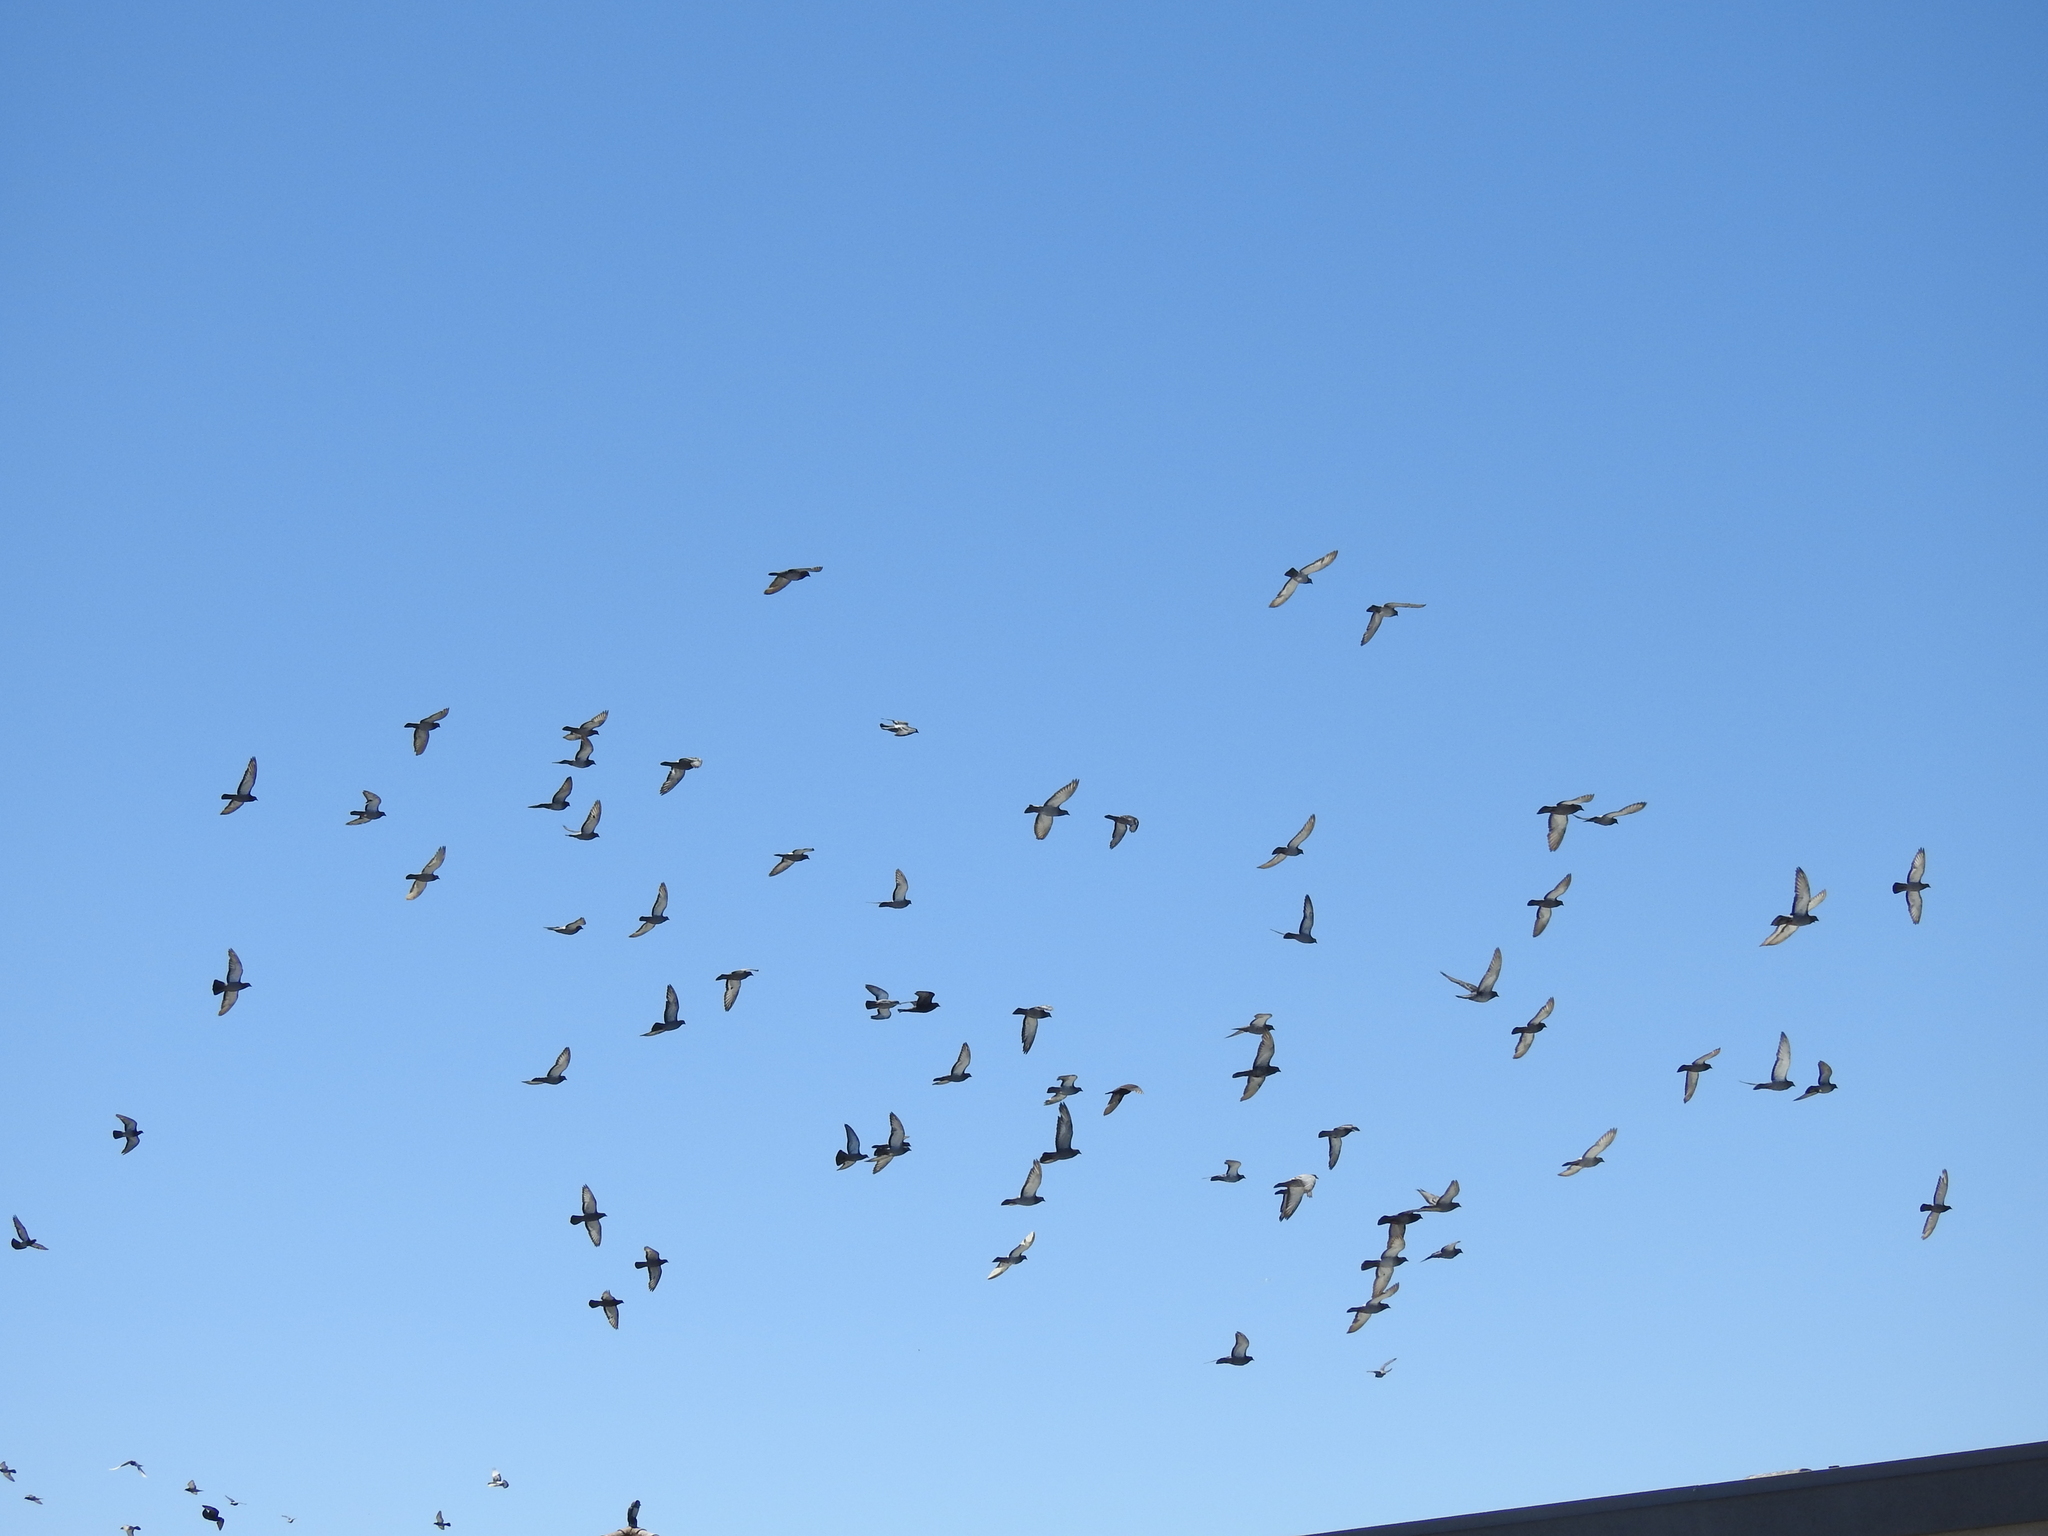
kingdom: Animalia
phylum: Chordata
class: Aves
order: Columbiformes
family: Columbidae
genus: Columba
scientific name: Columba livia
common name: Rock pigeon
